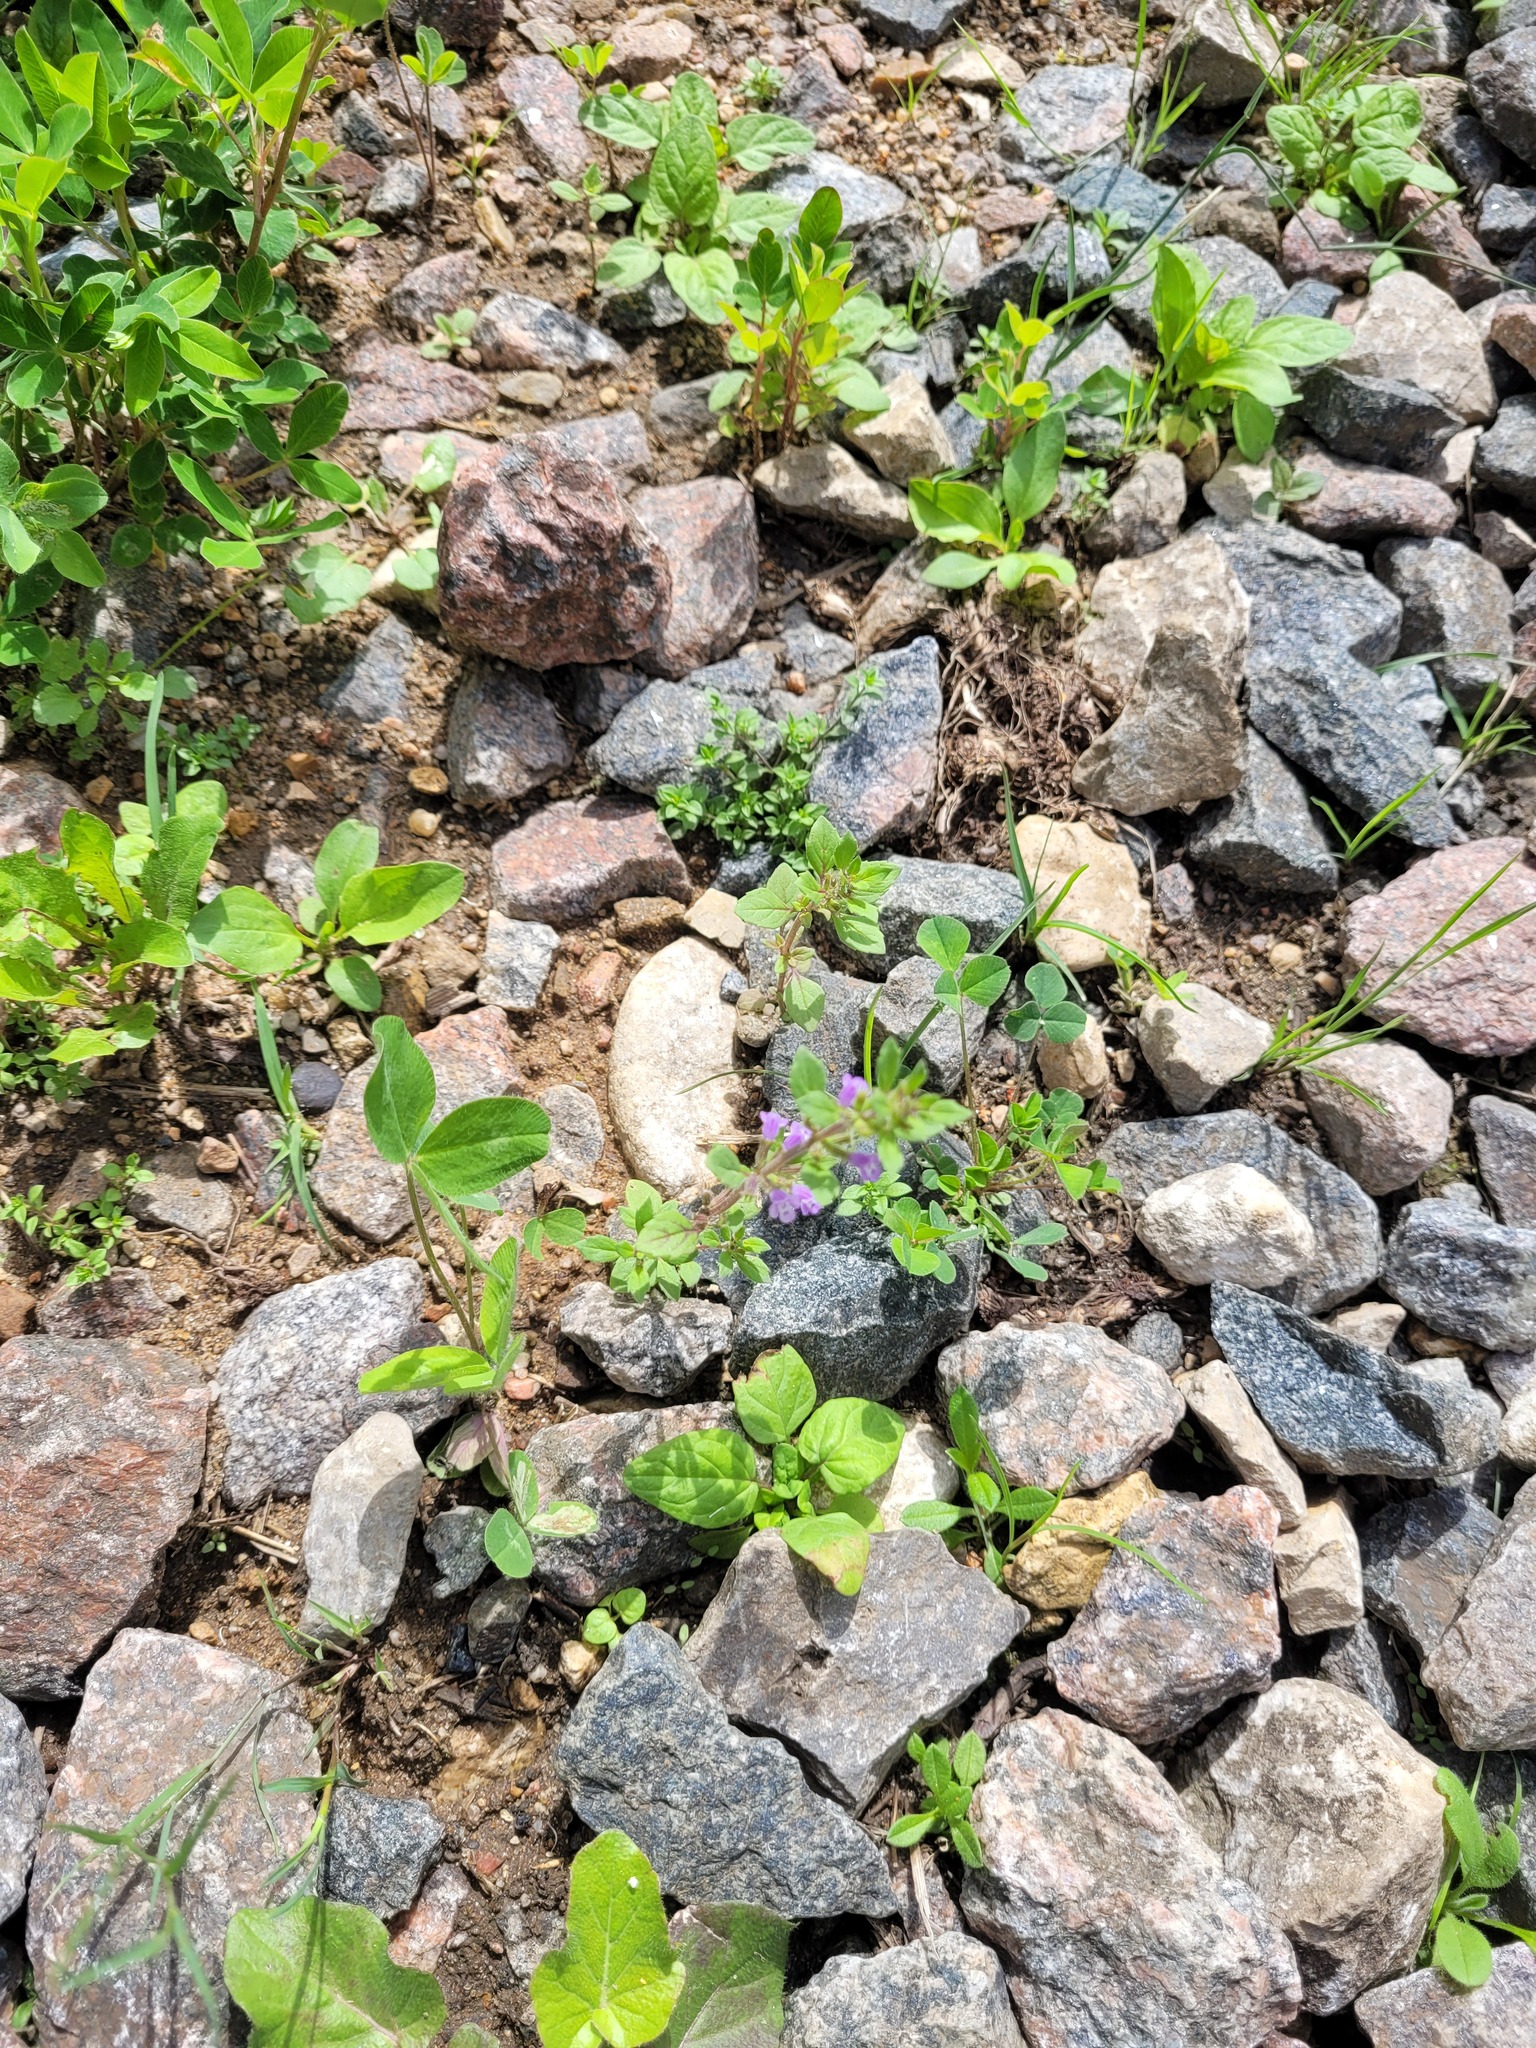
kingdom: Plantae
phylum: Tracheophyta
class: Magnoliopsida
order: Lamiales
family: Lamiaceae
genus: Clinopodium
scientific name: Clinopodium acinos
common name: Basil thyme
